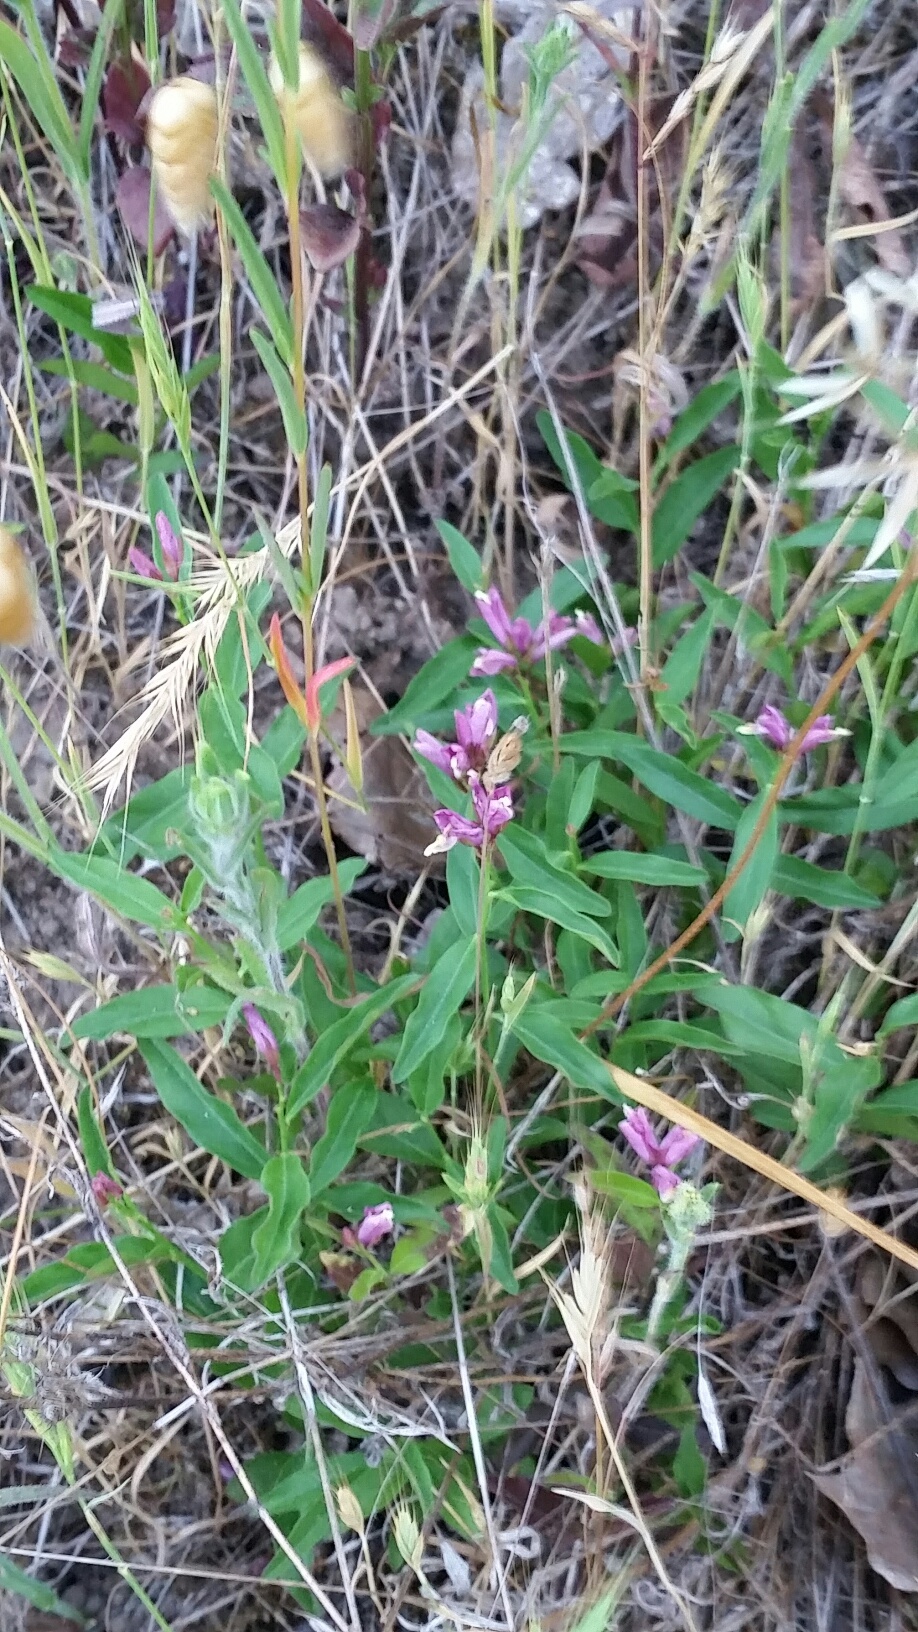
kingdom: Plantae
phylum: Tracheophyta
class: Magnoliopsida
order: Fabales
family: Polygalaceae
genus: Rhinotropis
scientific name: Rhinotropis californica
